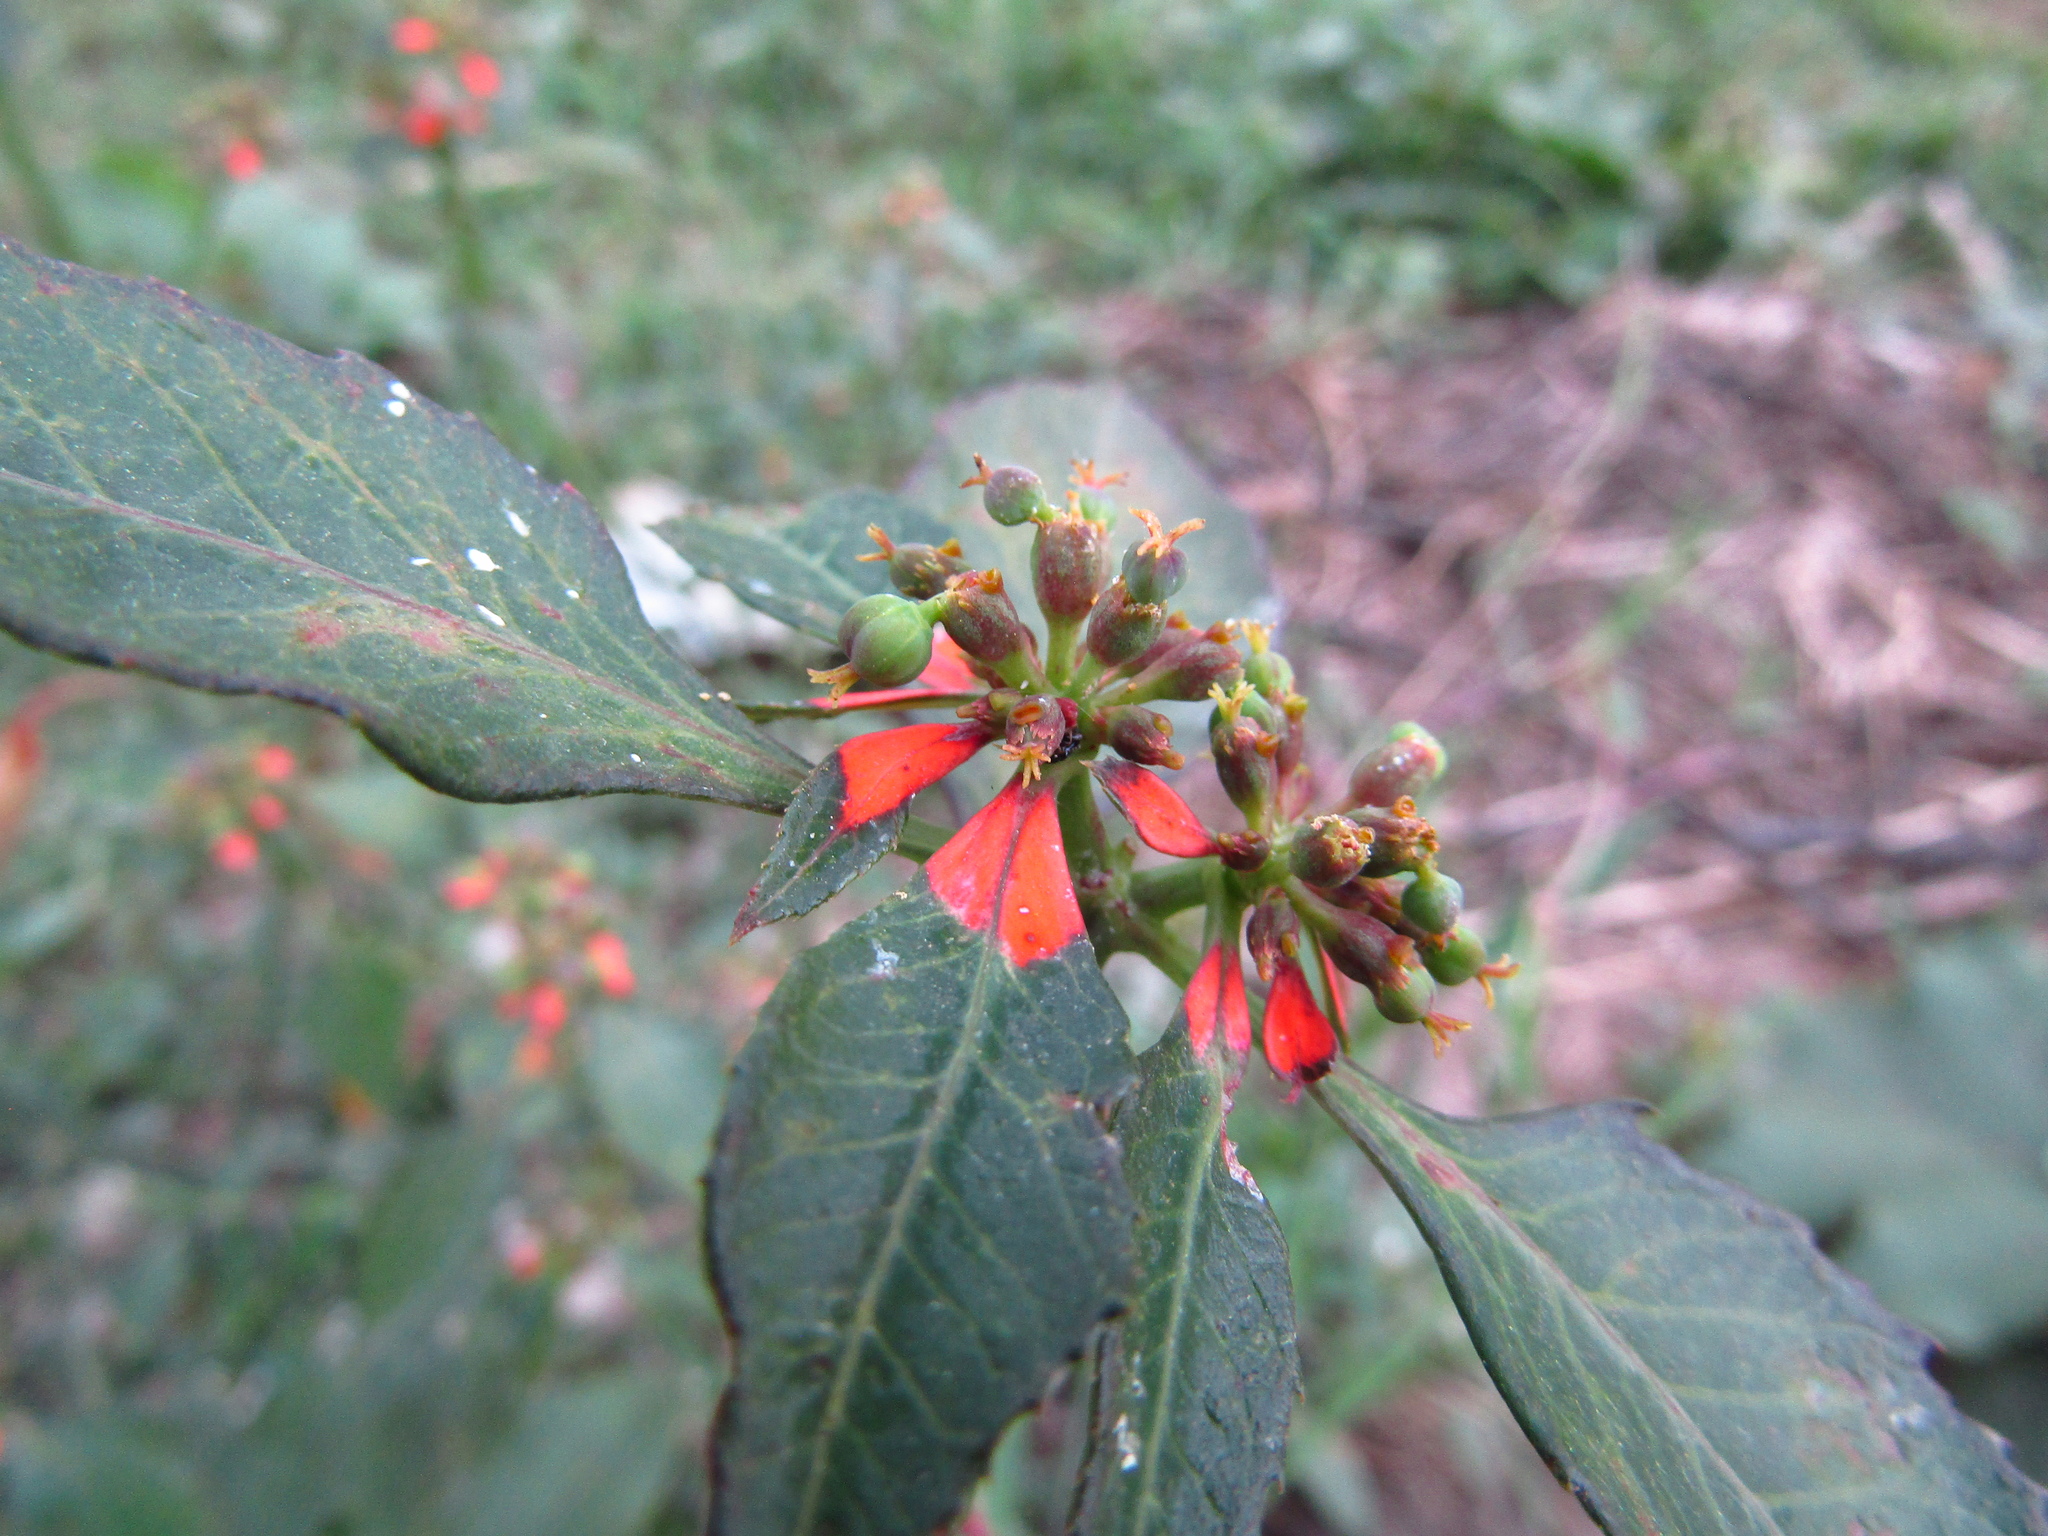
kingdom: Plantae
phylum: Tracheophyta
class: Magnoliopsida
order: Malpighiales
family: Euphorbiaceae
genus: Euphorbia
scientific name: Euphorbia heterophylla
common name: Mexican fireplant
